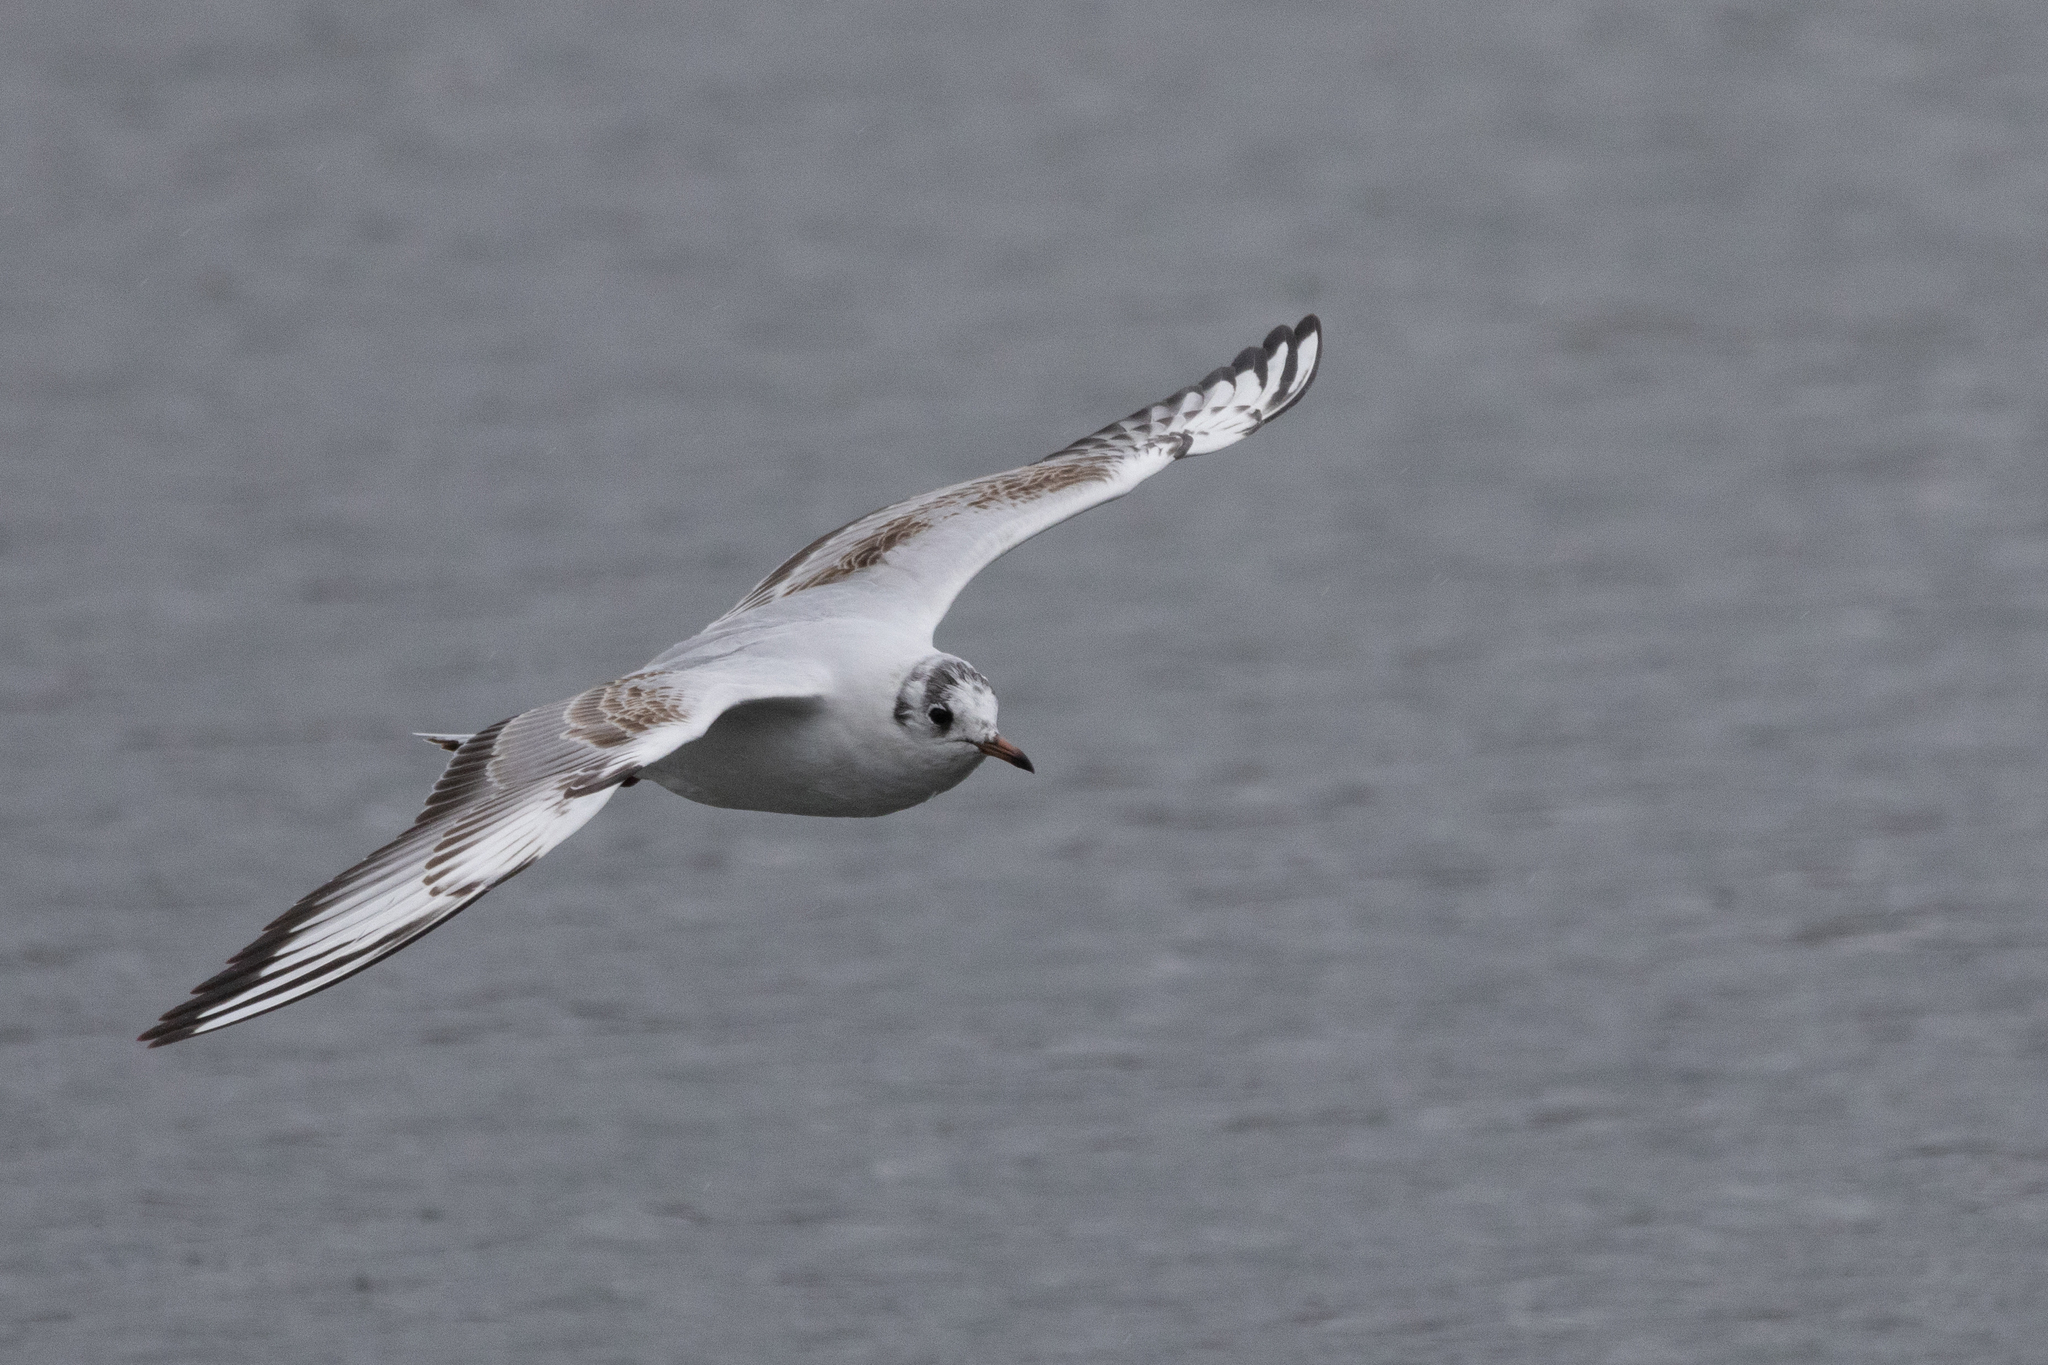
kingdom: Animalia
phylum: Chordata
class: Aves
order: Charadriiformes
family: Laridae
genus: Chroicocephalus
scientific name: Chroicocephalus ridibundus
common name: Black-headed gull
